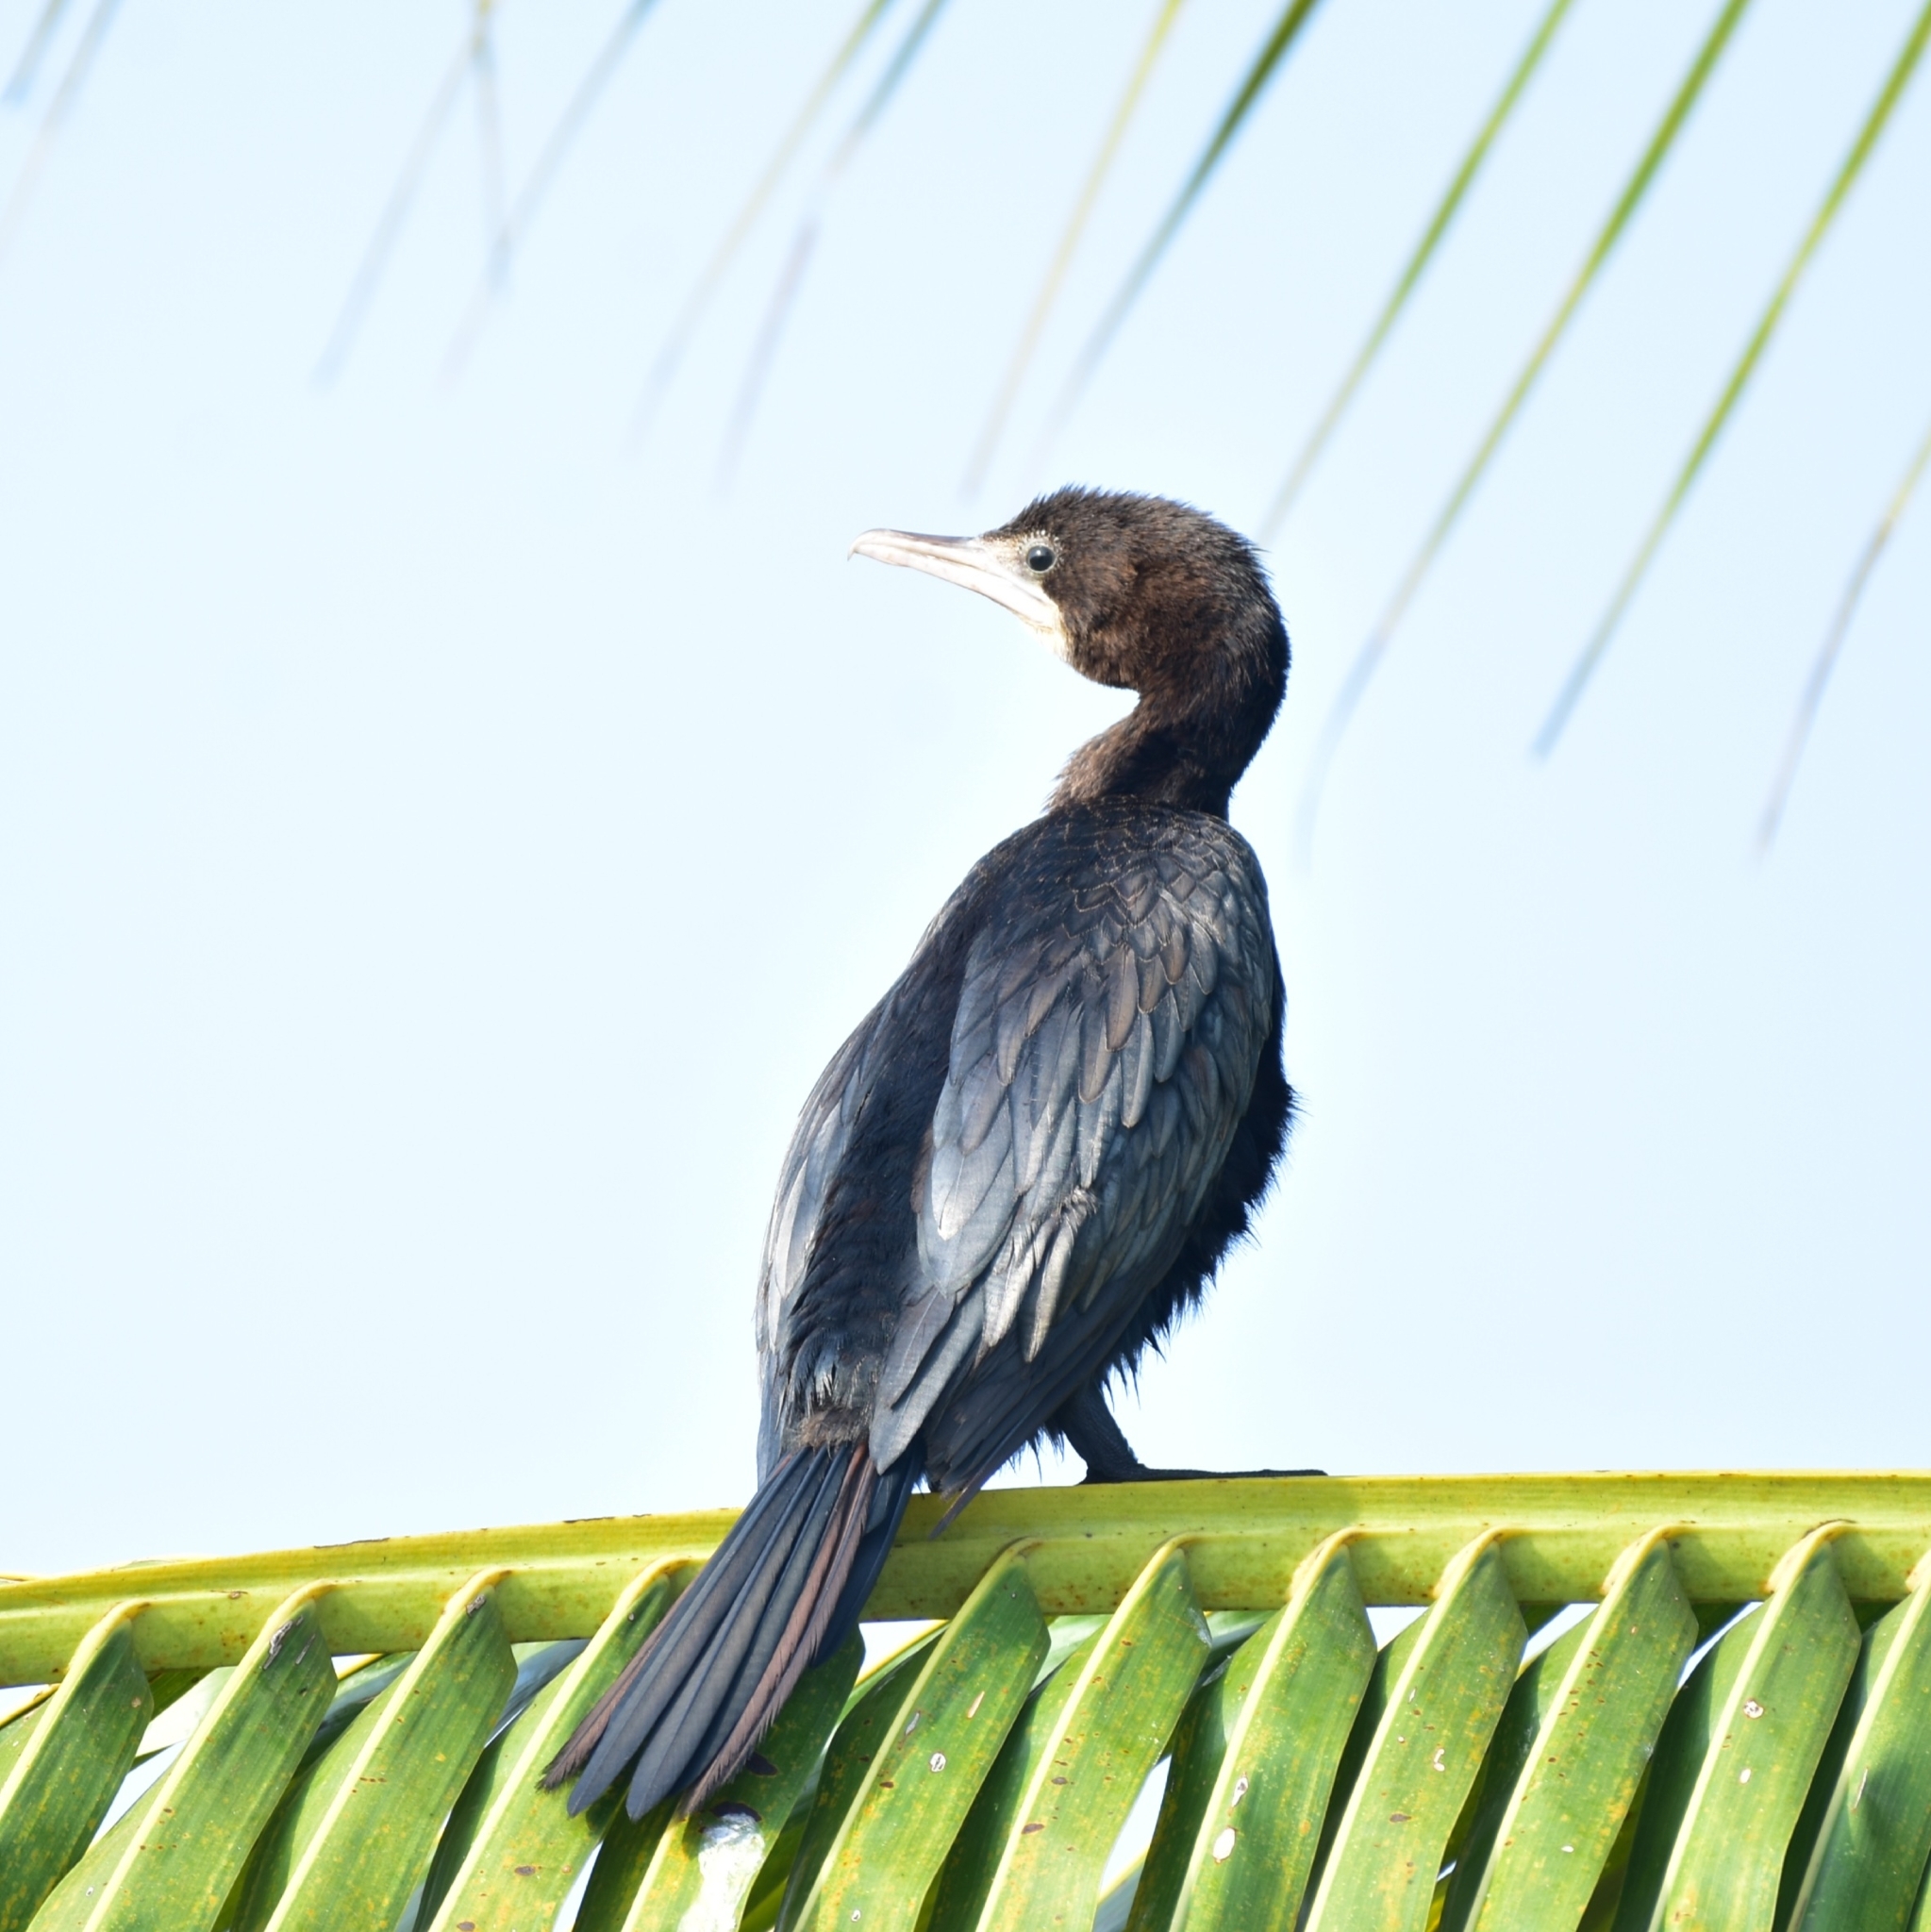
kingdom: Animalia
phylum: Chordata
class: Aves
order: Suliformes
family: Phalacrocoracidae
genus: Microcarbo
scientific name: Microcarbo niger
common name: Little cormorant
